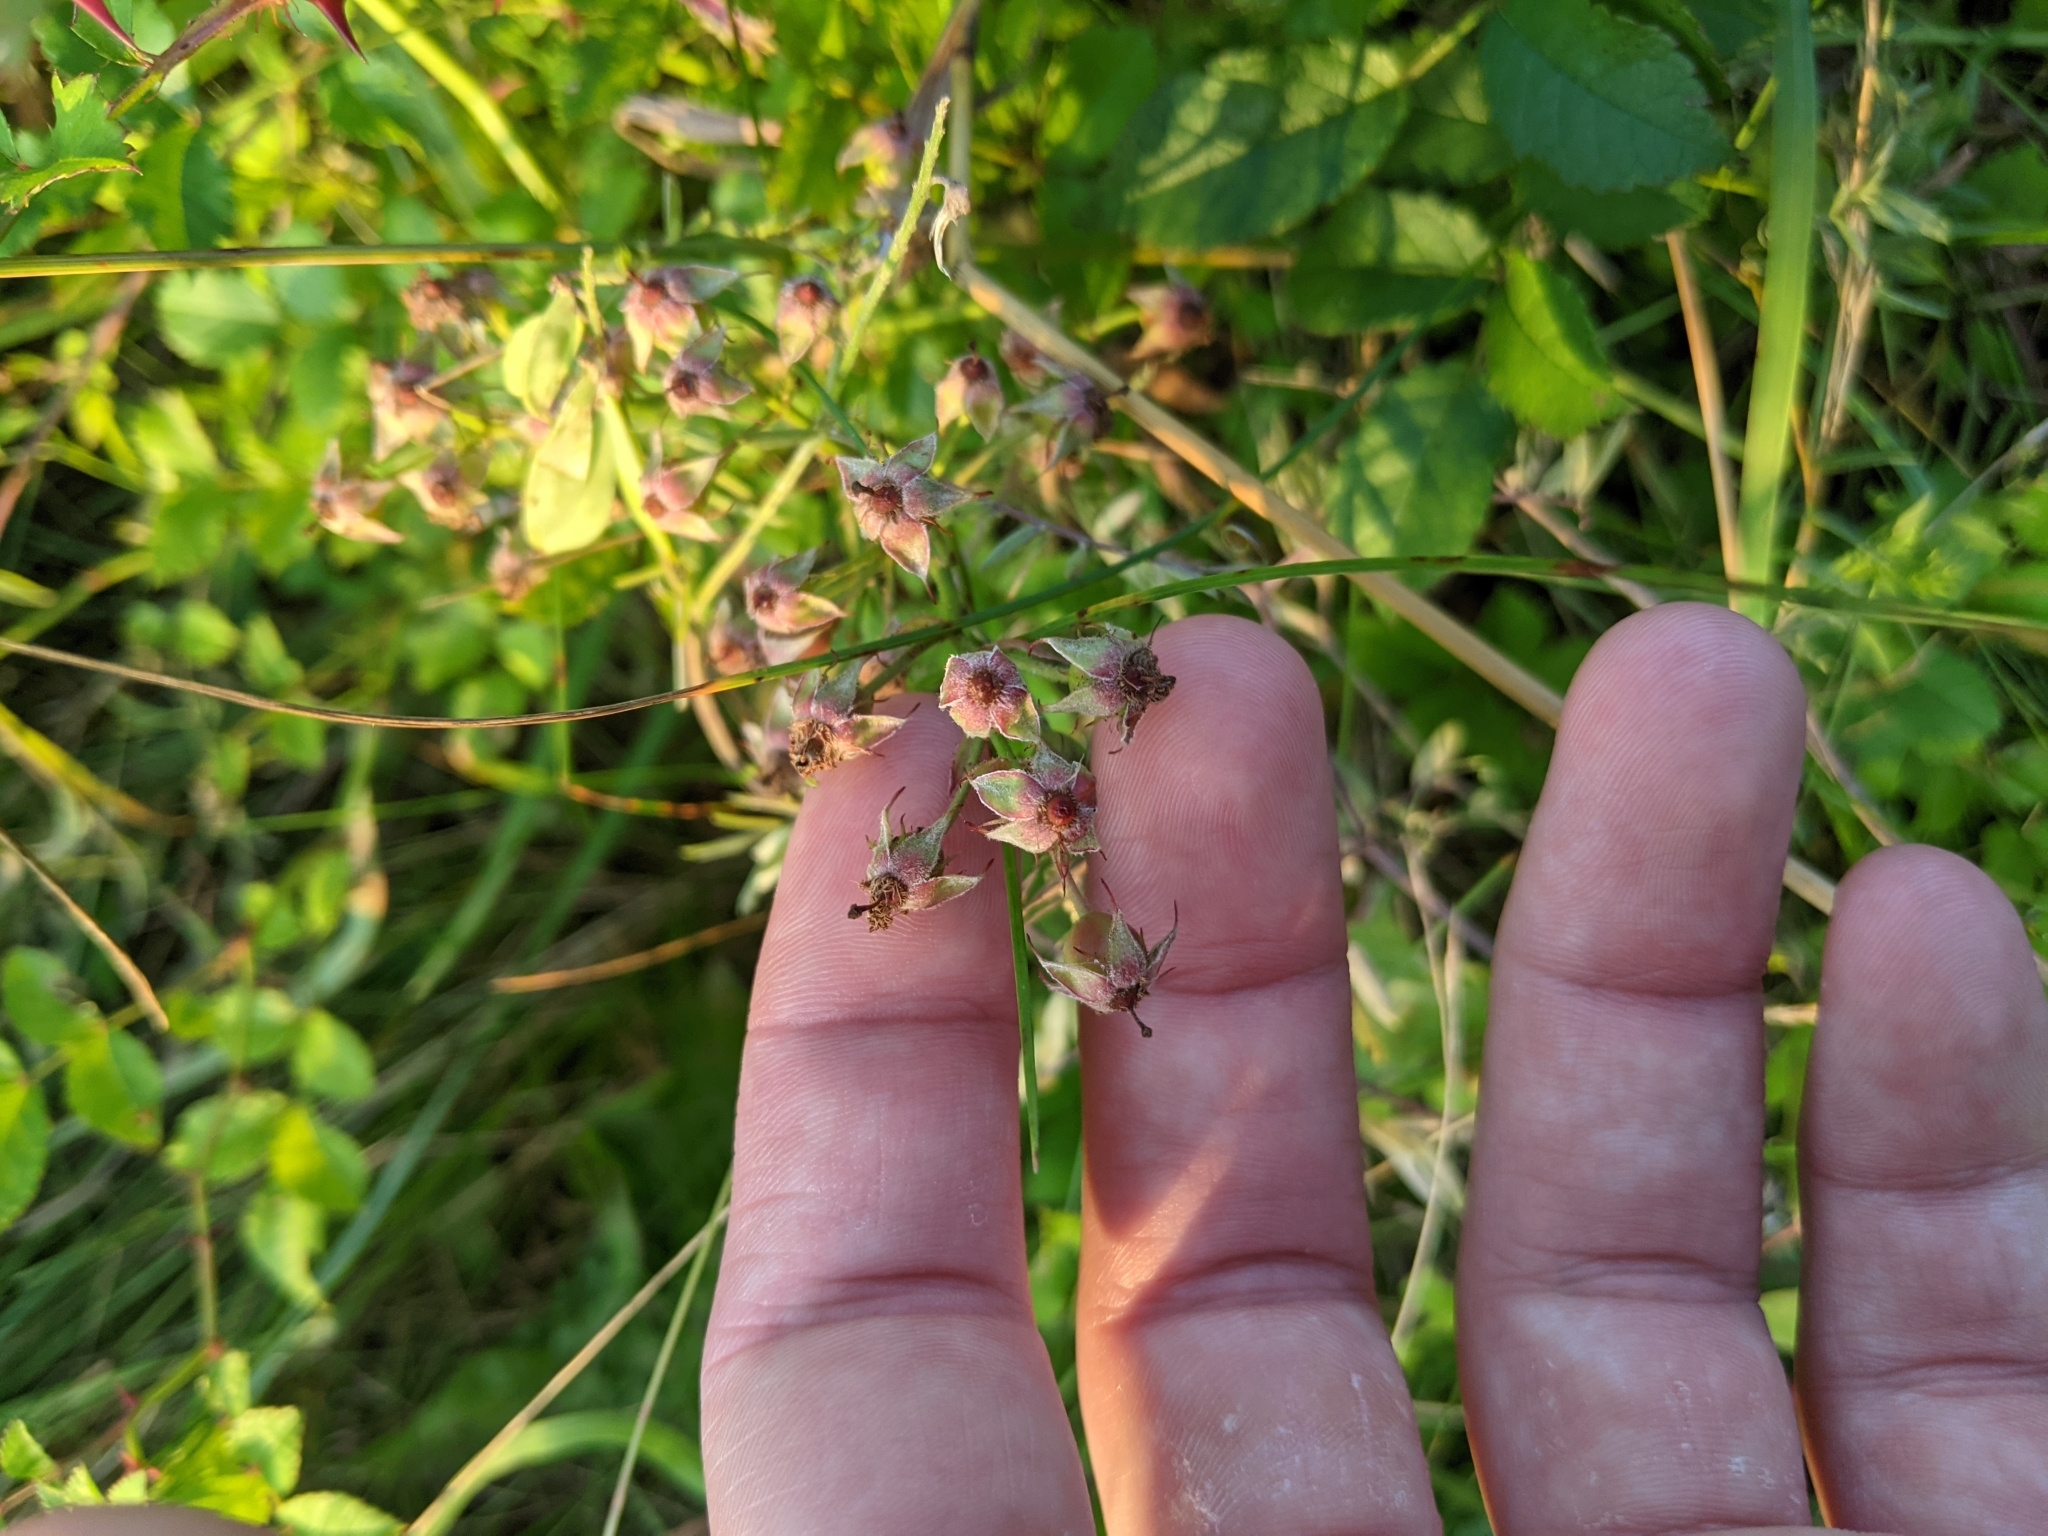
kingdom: Plantae
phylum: Tracheophyta
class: Magnoliopsida
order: Rosales
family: Rosaceae
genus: Rosa
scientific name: Rosa multiflora
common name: Multiflora rose
